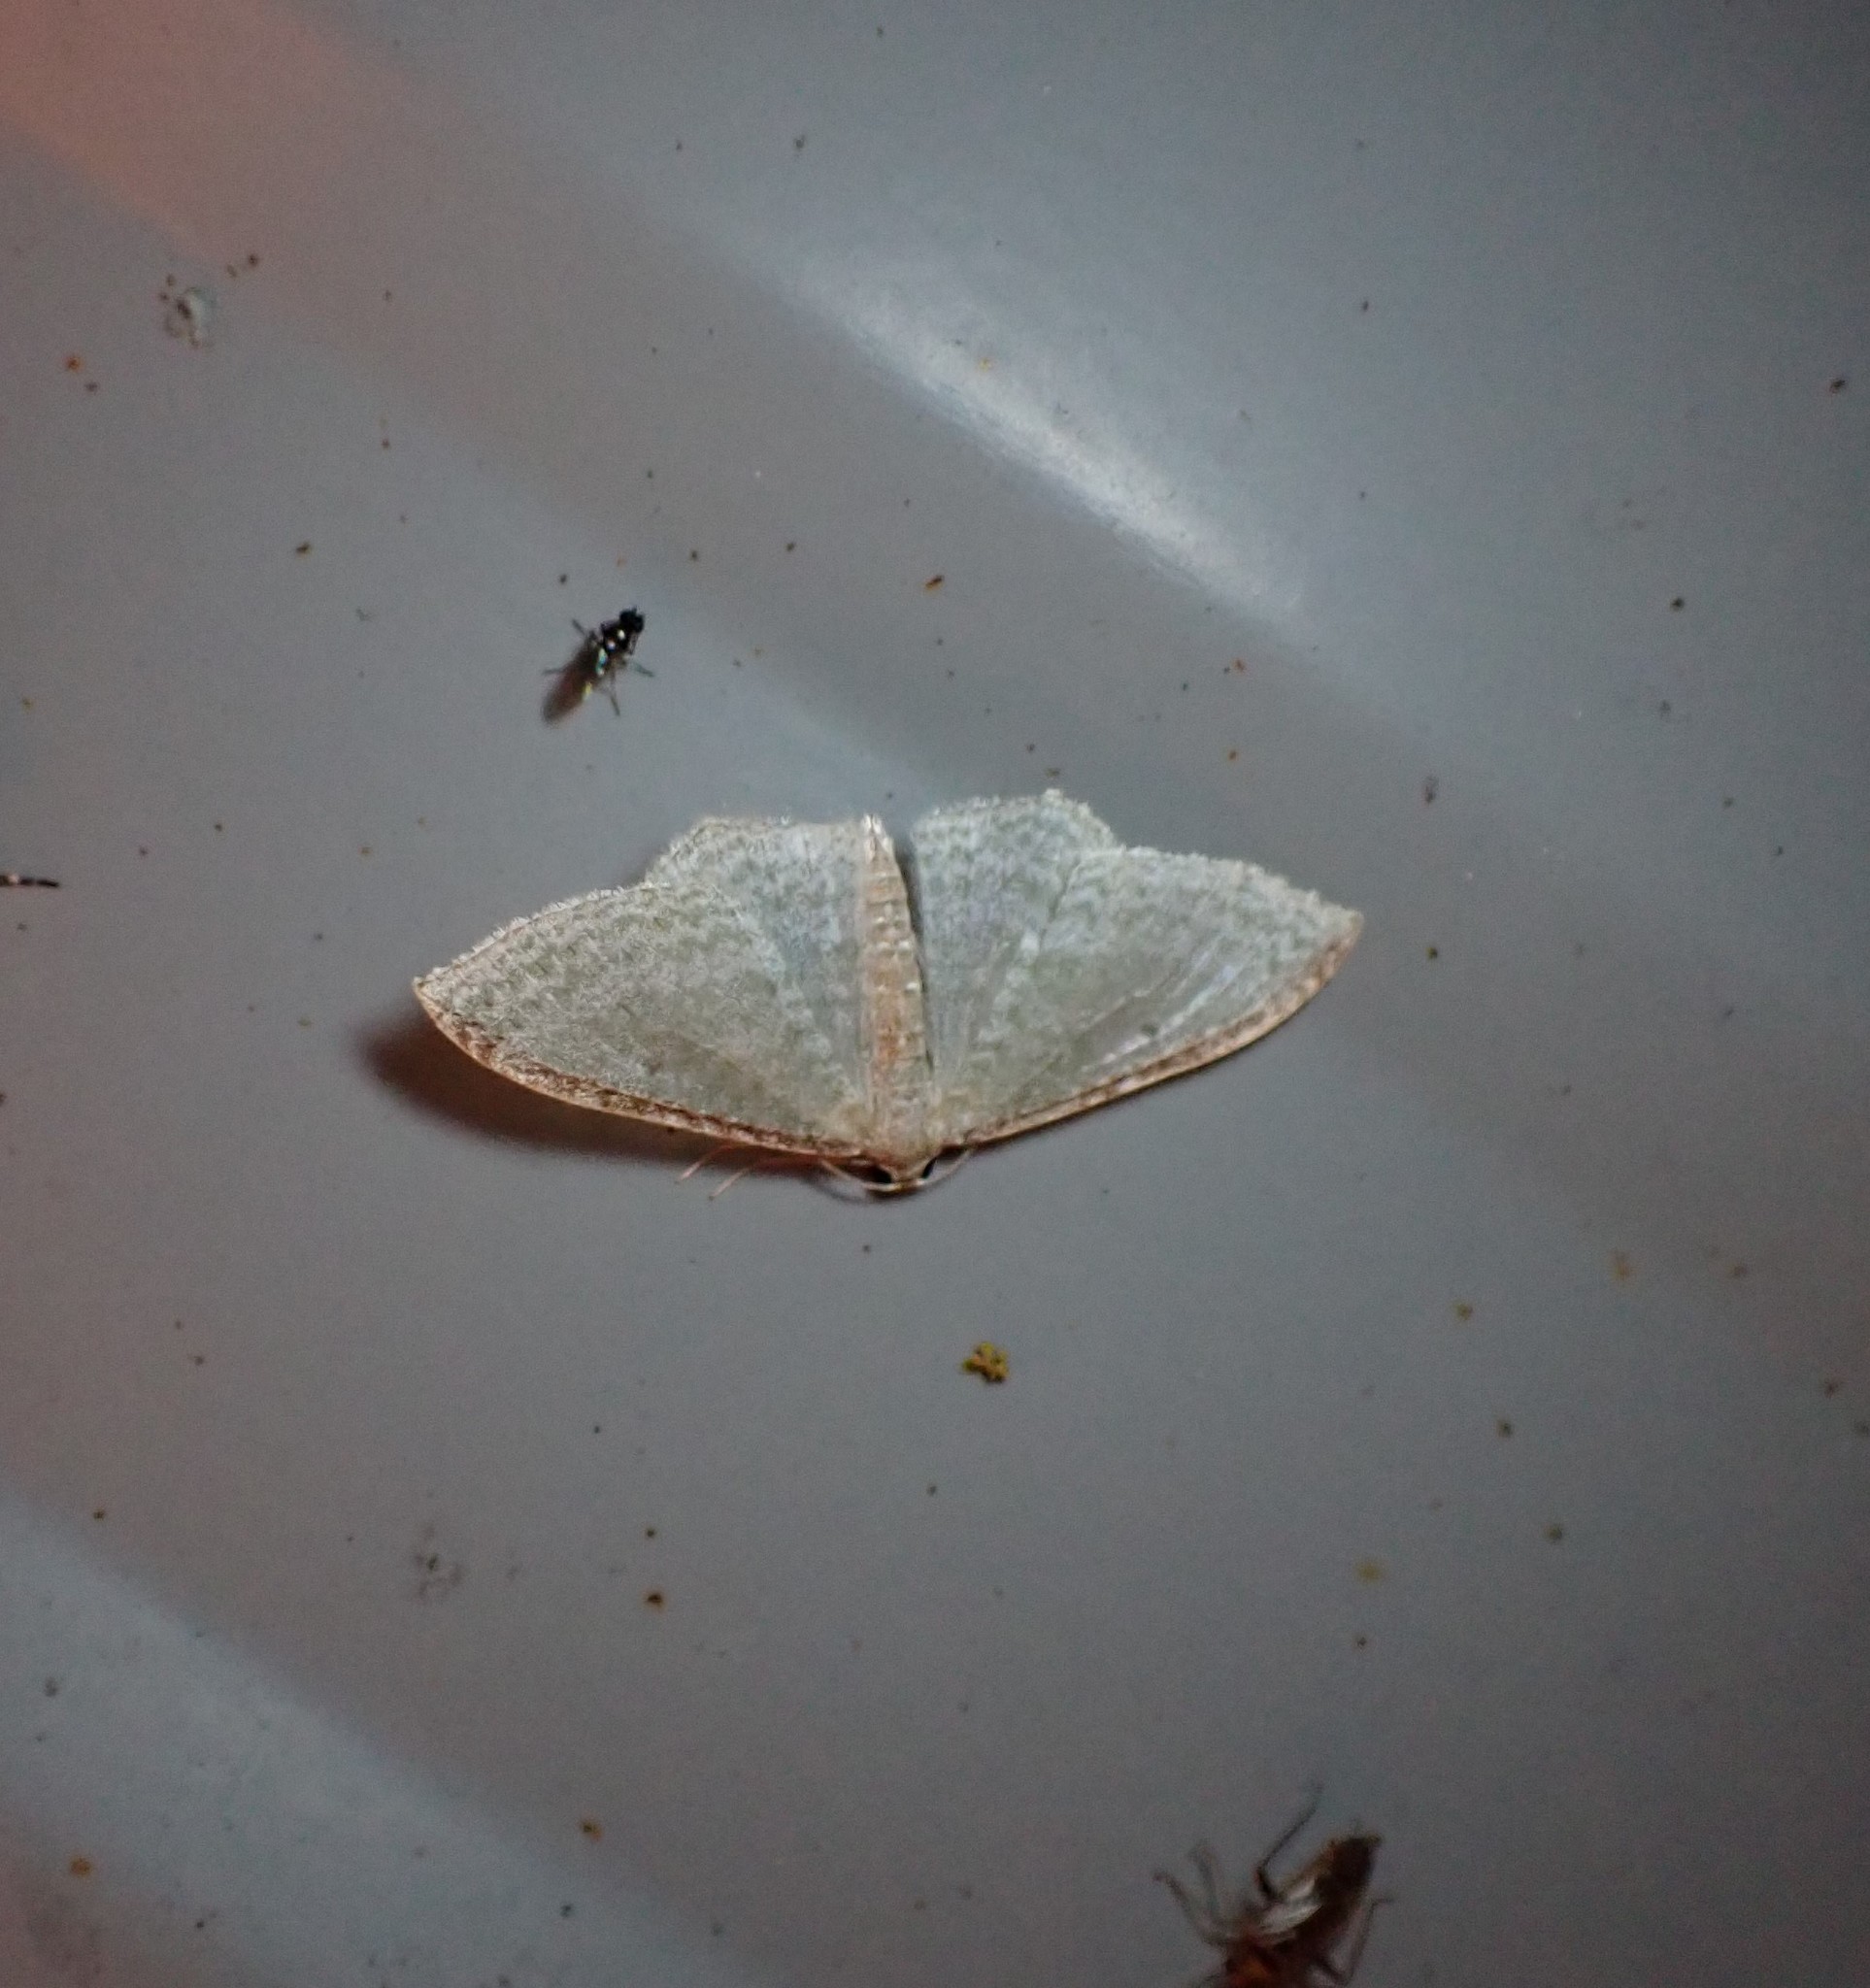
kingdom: Animalia
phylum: Arthropoda
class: Insecta
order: Lepidoptera
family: Geometridae
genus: Poecilasthena
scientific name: Poecilasthena pulchraria
